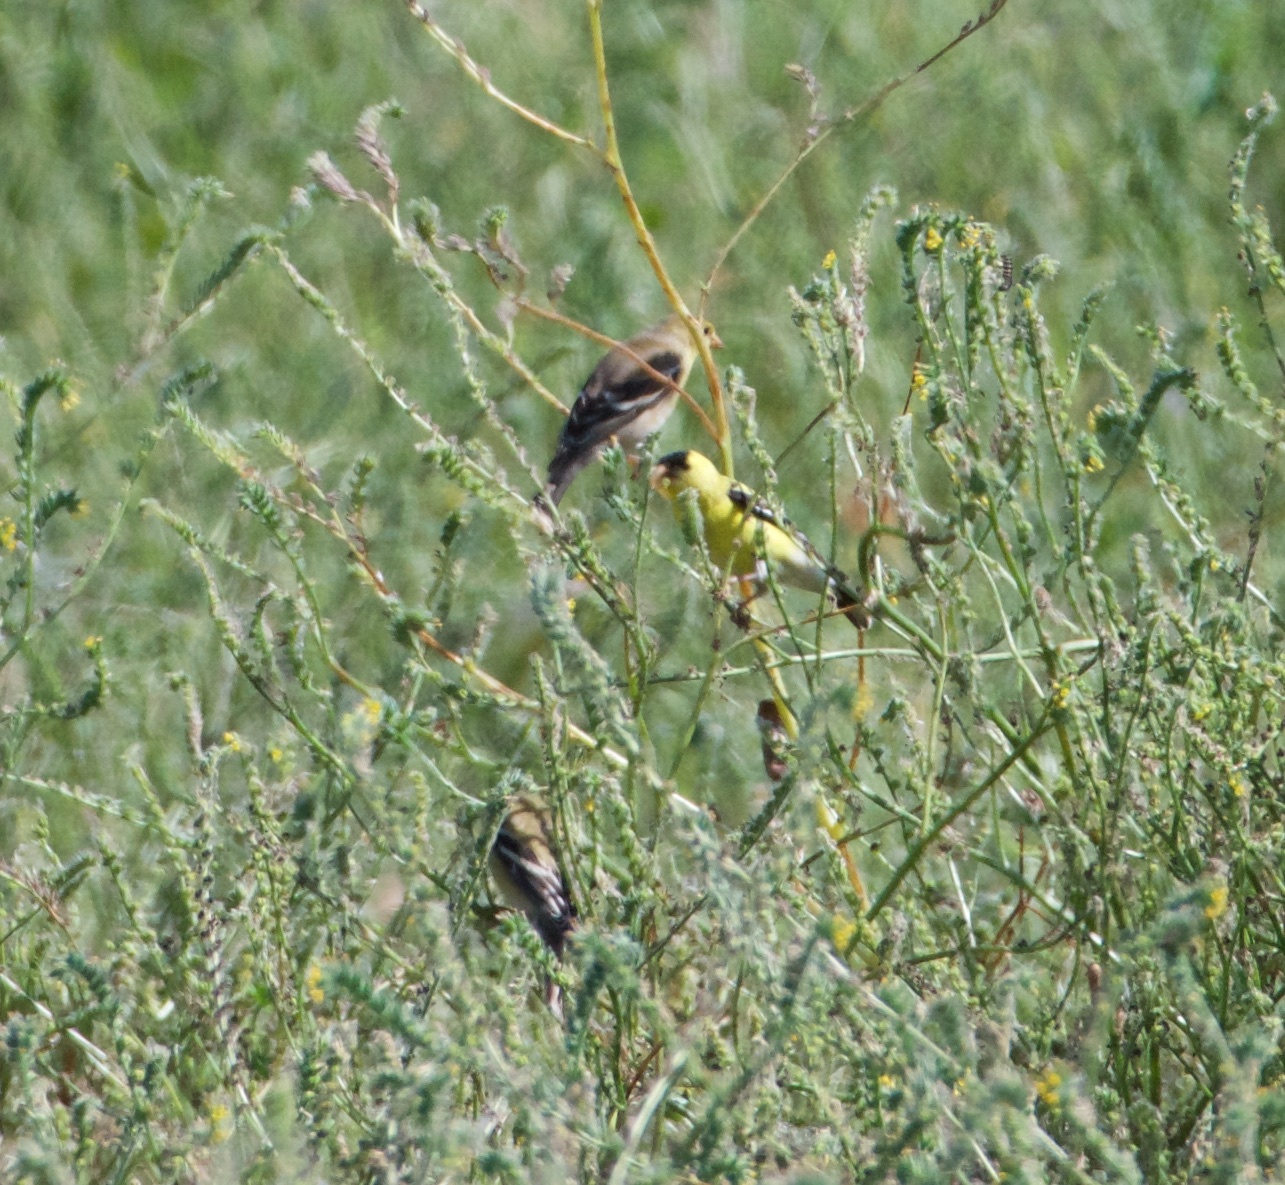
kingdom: Animalia
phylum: Chordata
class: Aves
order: Passeriformes
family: Fringillidae
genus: Spinus
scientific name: Spinus tristis
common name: American goldfinch
